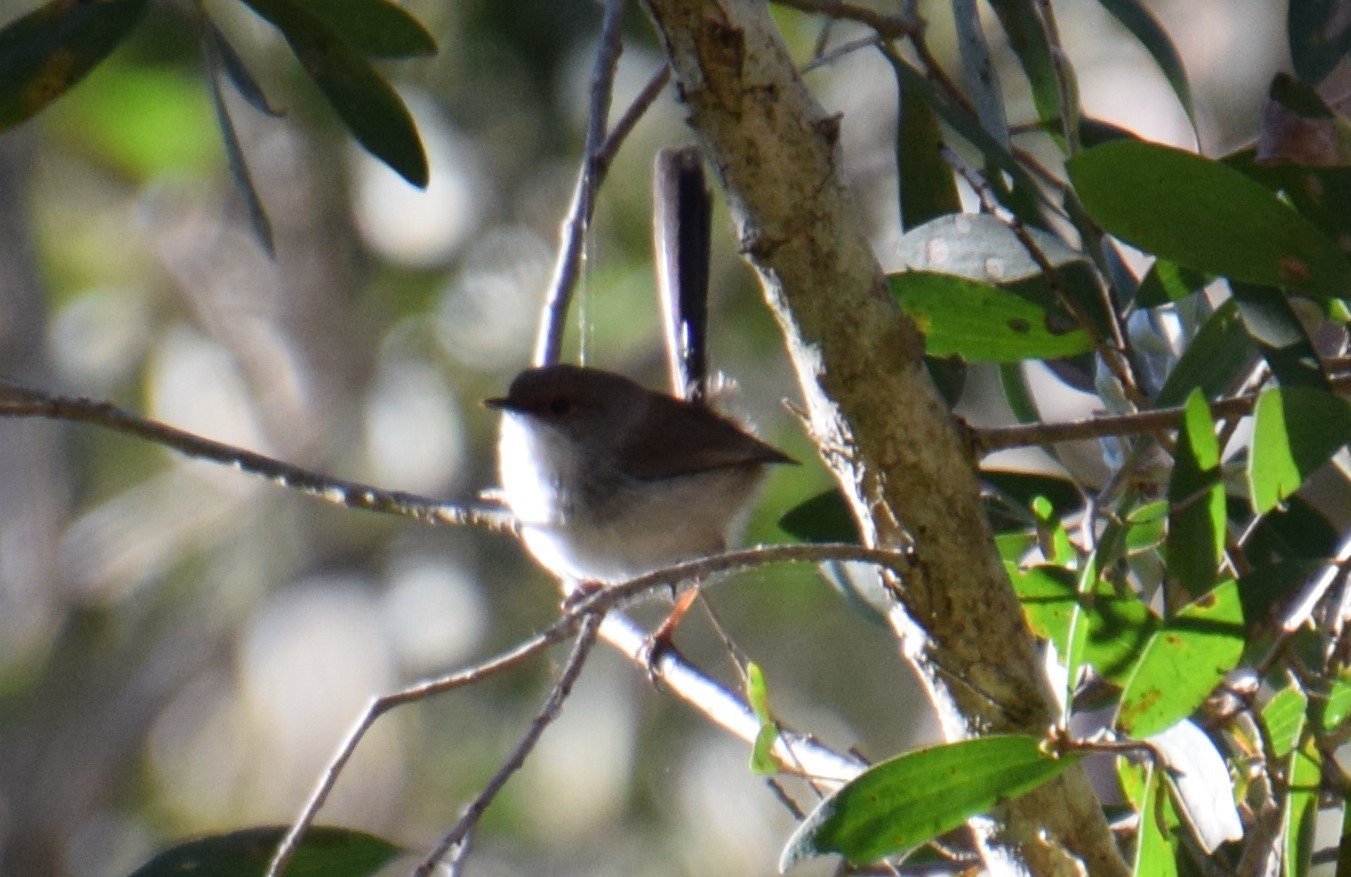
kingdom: Animalia
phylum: Chordata
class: Aves
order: Passeriformes
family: Maluridae
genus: Malurus
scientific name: Malurus cyaneus
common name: Superb fairywren
